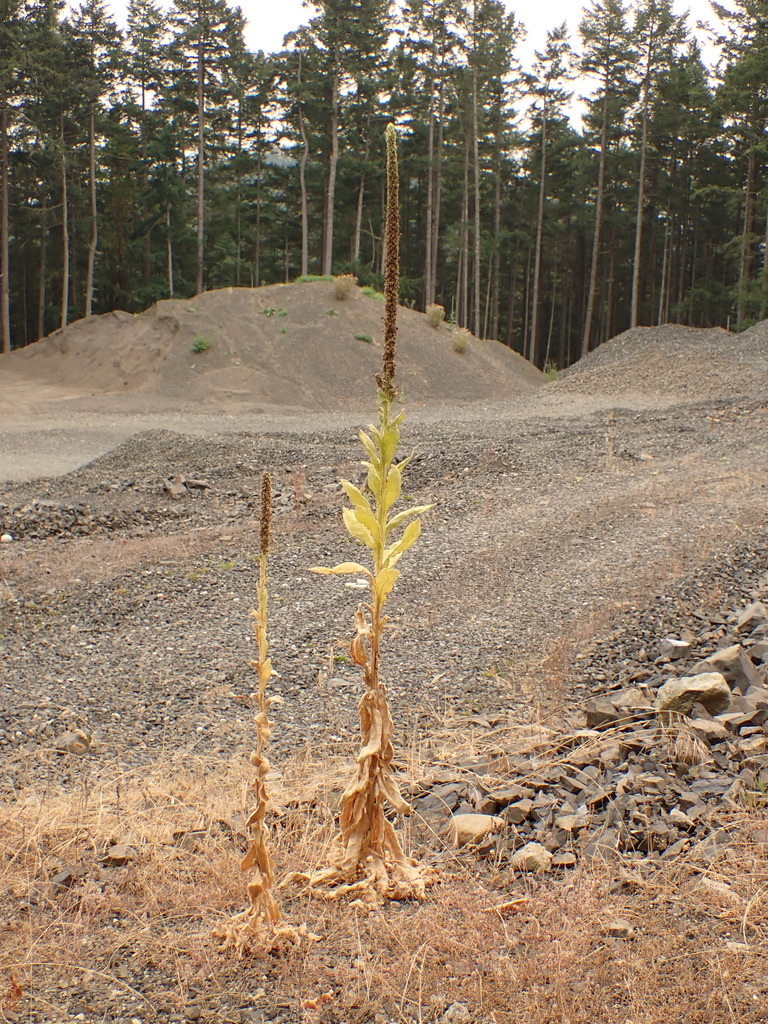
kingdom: Plantae
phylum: Tracheophyta
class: Magnoliopsida
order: Lamiales
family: Scrophulariaceae
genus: Verbascum
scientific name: Verbascum thapsus
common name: Common mullein
